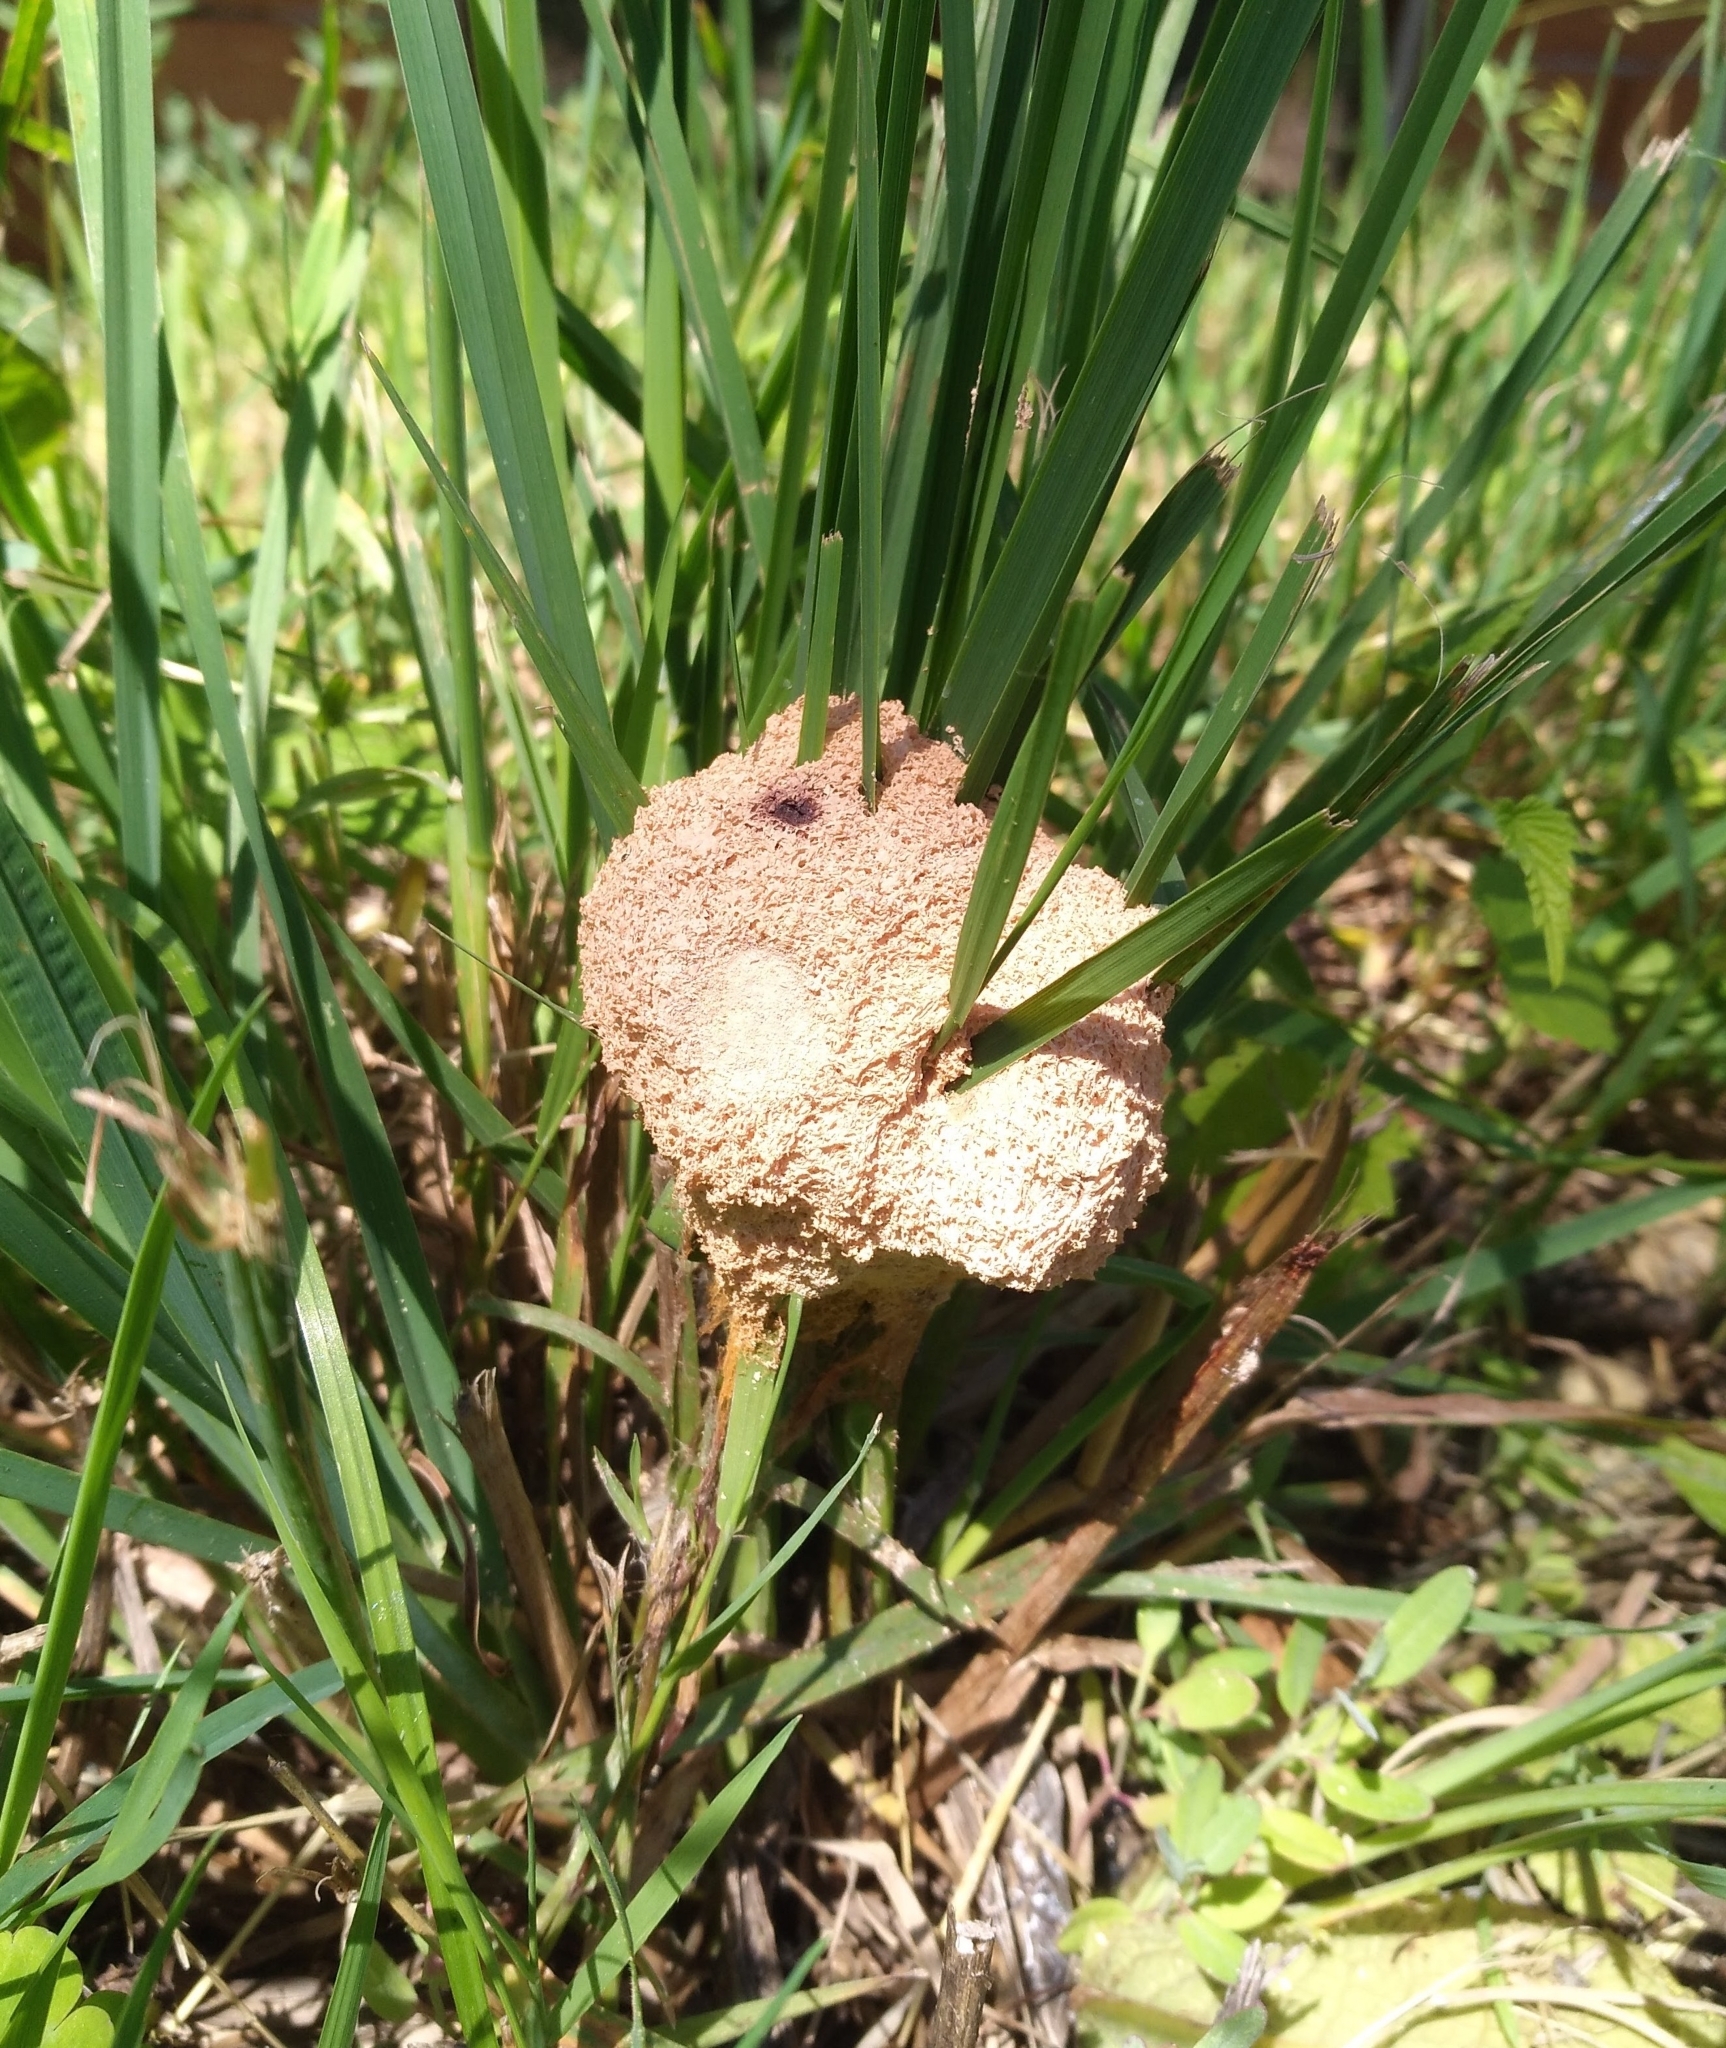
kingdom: Protozoa
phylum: Mycetozoa
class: Myxomycetes
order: Physarales
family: Physaraceae
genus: Fuligo
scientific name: Fuligo septica
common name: Dog vomit slime mold
